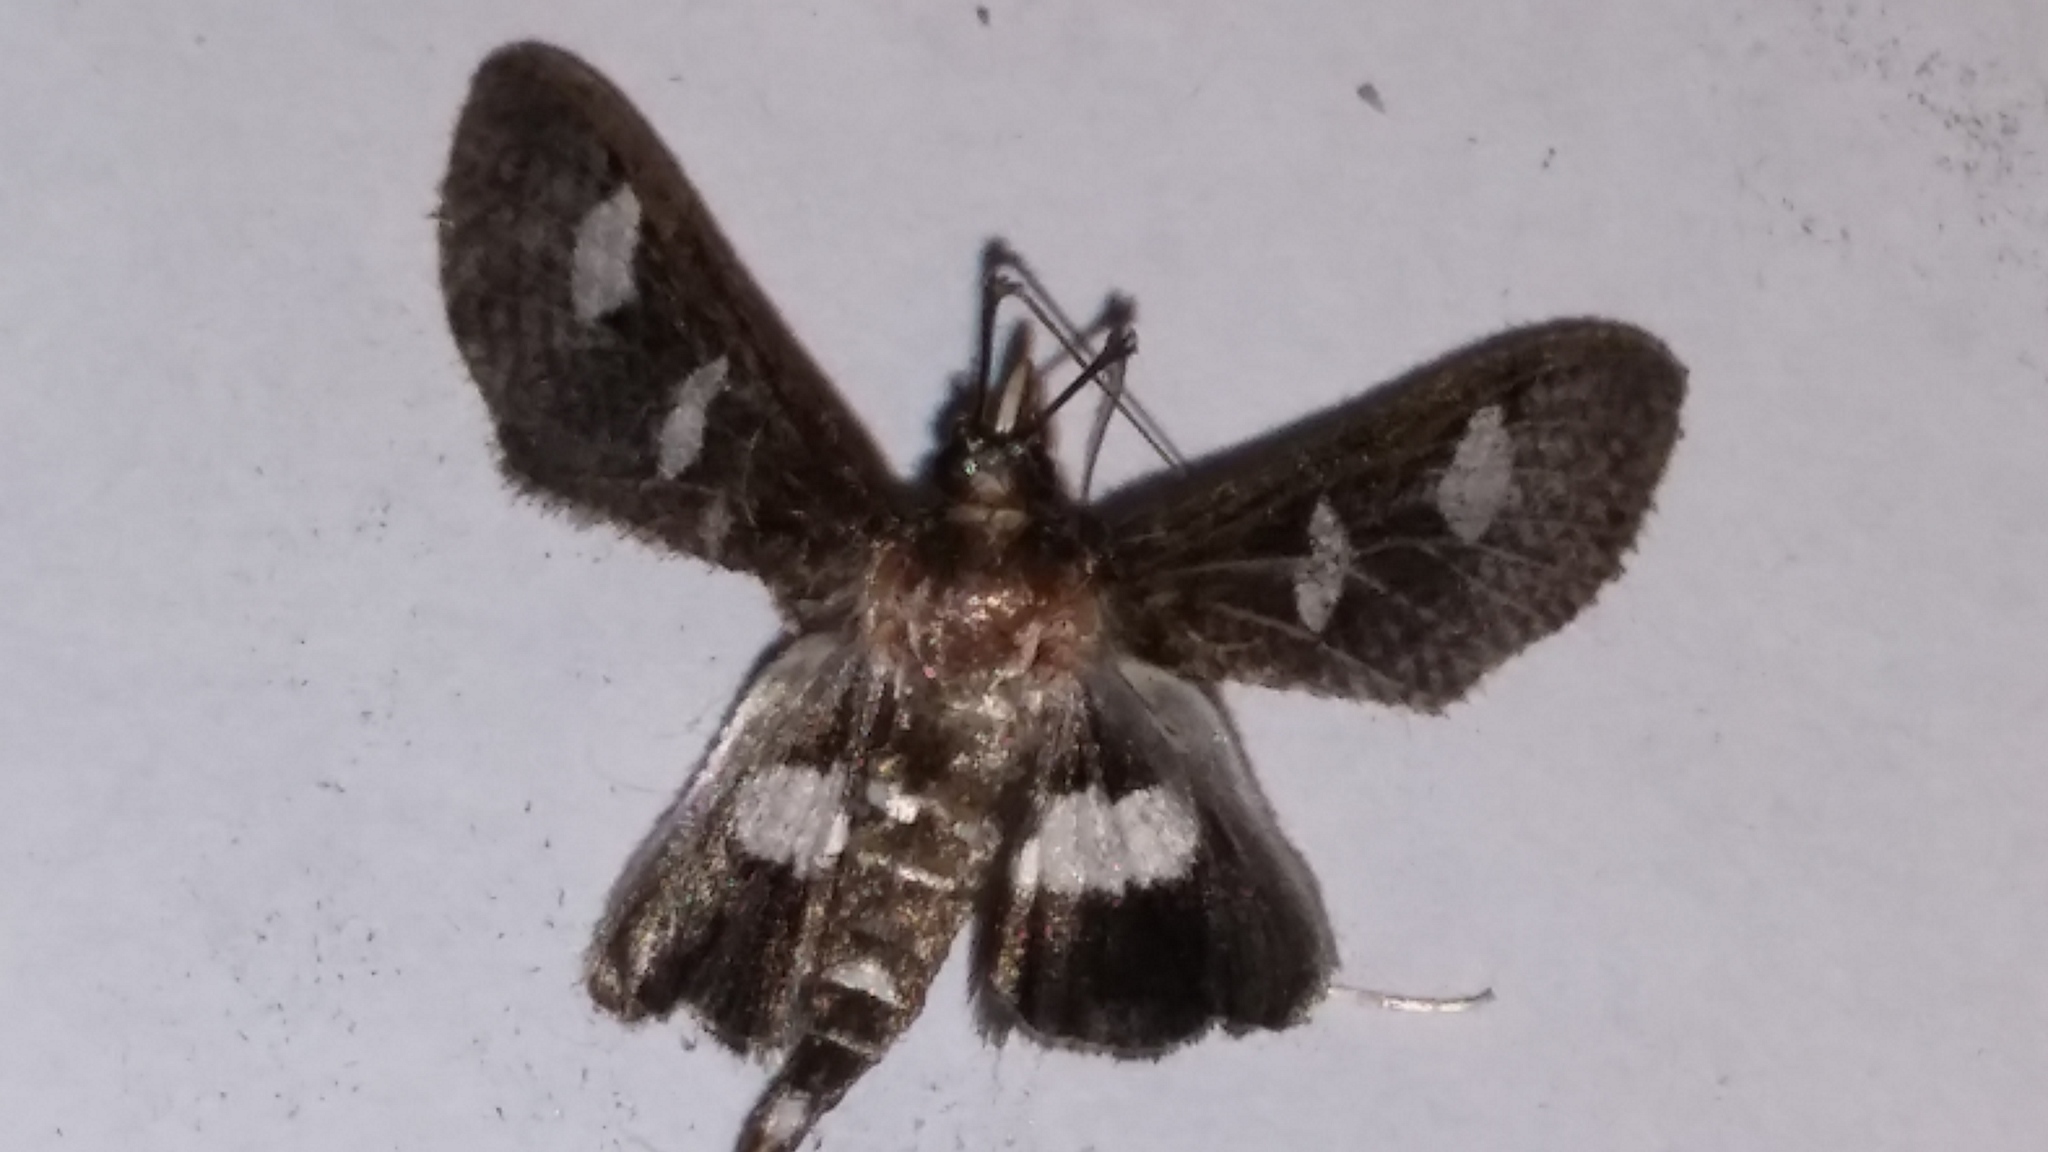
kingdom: Animalia
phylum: Arthropoda
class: Insecta
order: Lepidoptera
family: Crambidae
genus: Desmia
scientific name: Desmia funeralis
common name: Grape leaf folder moth
